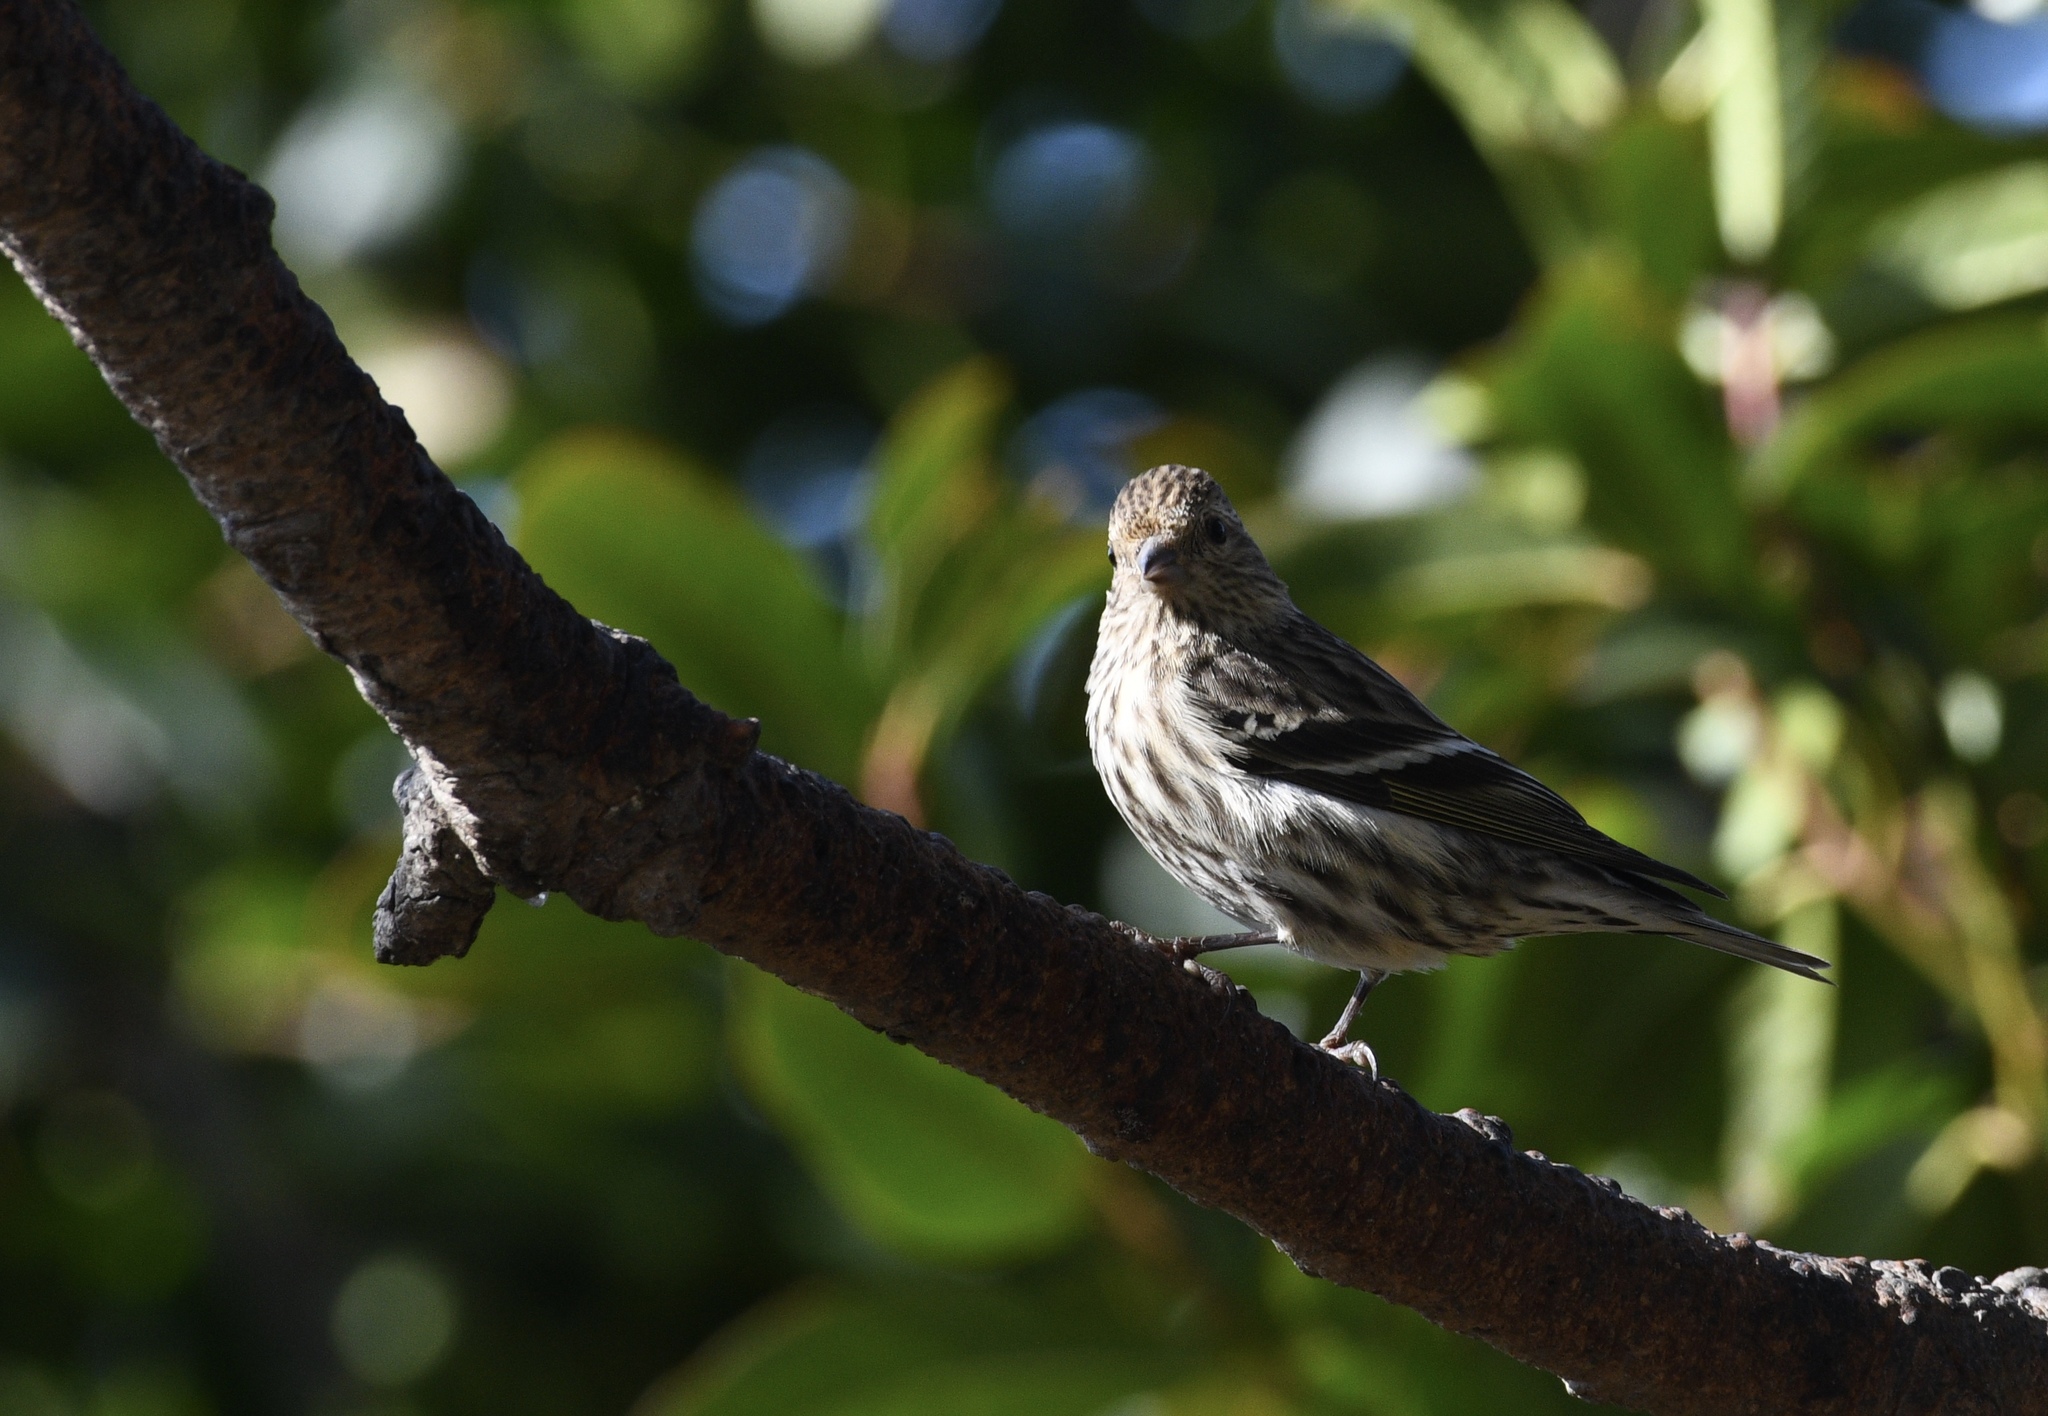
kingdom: Animalia
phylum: Chordata
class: Aves
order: Passeriformes
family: Fringillidae
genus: Spinus
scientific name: Spinus pinus
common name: Pine siskin
